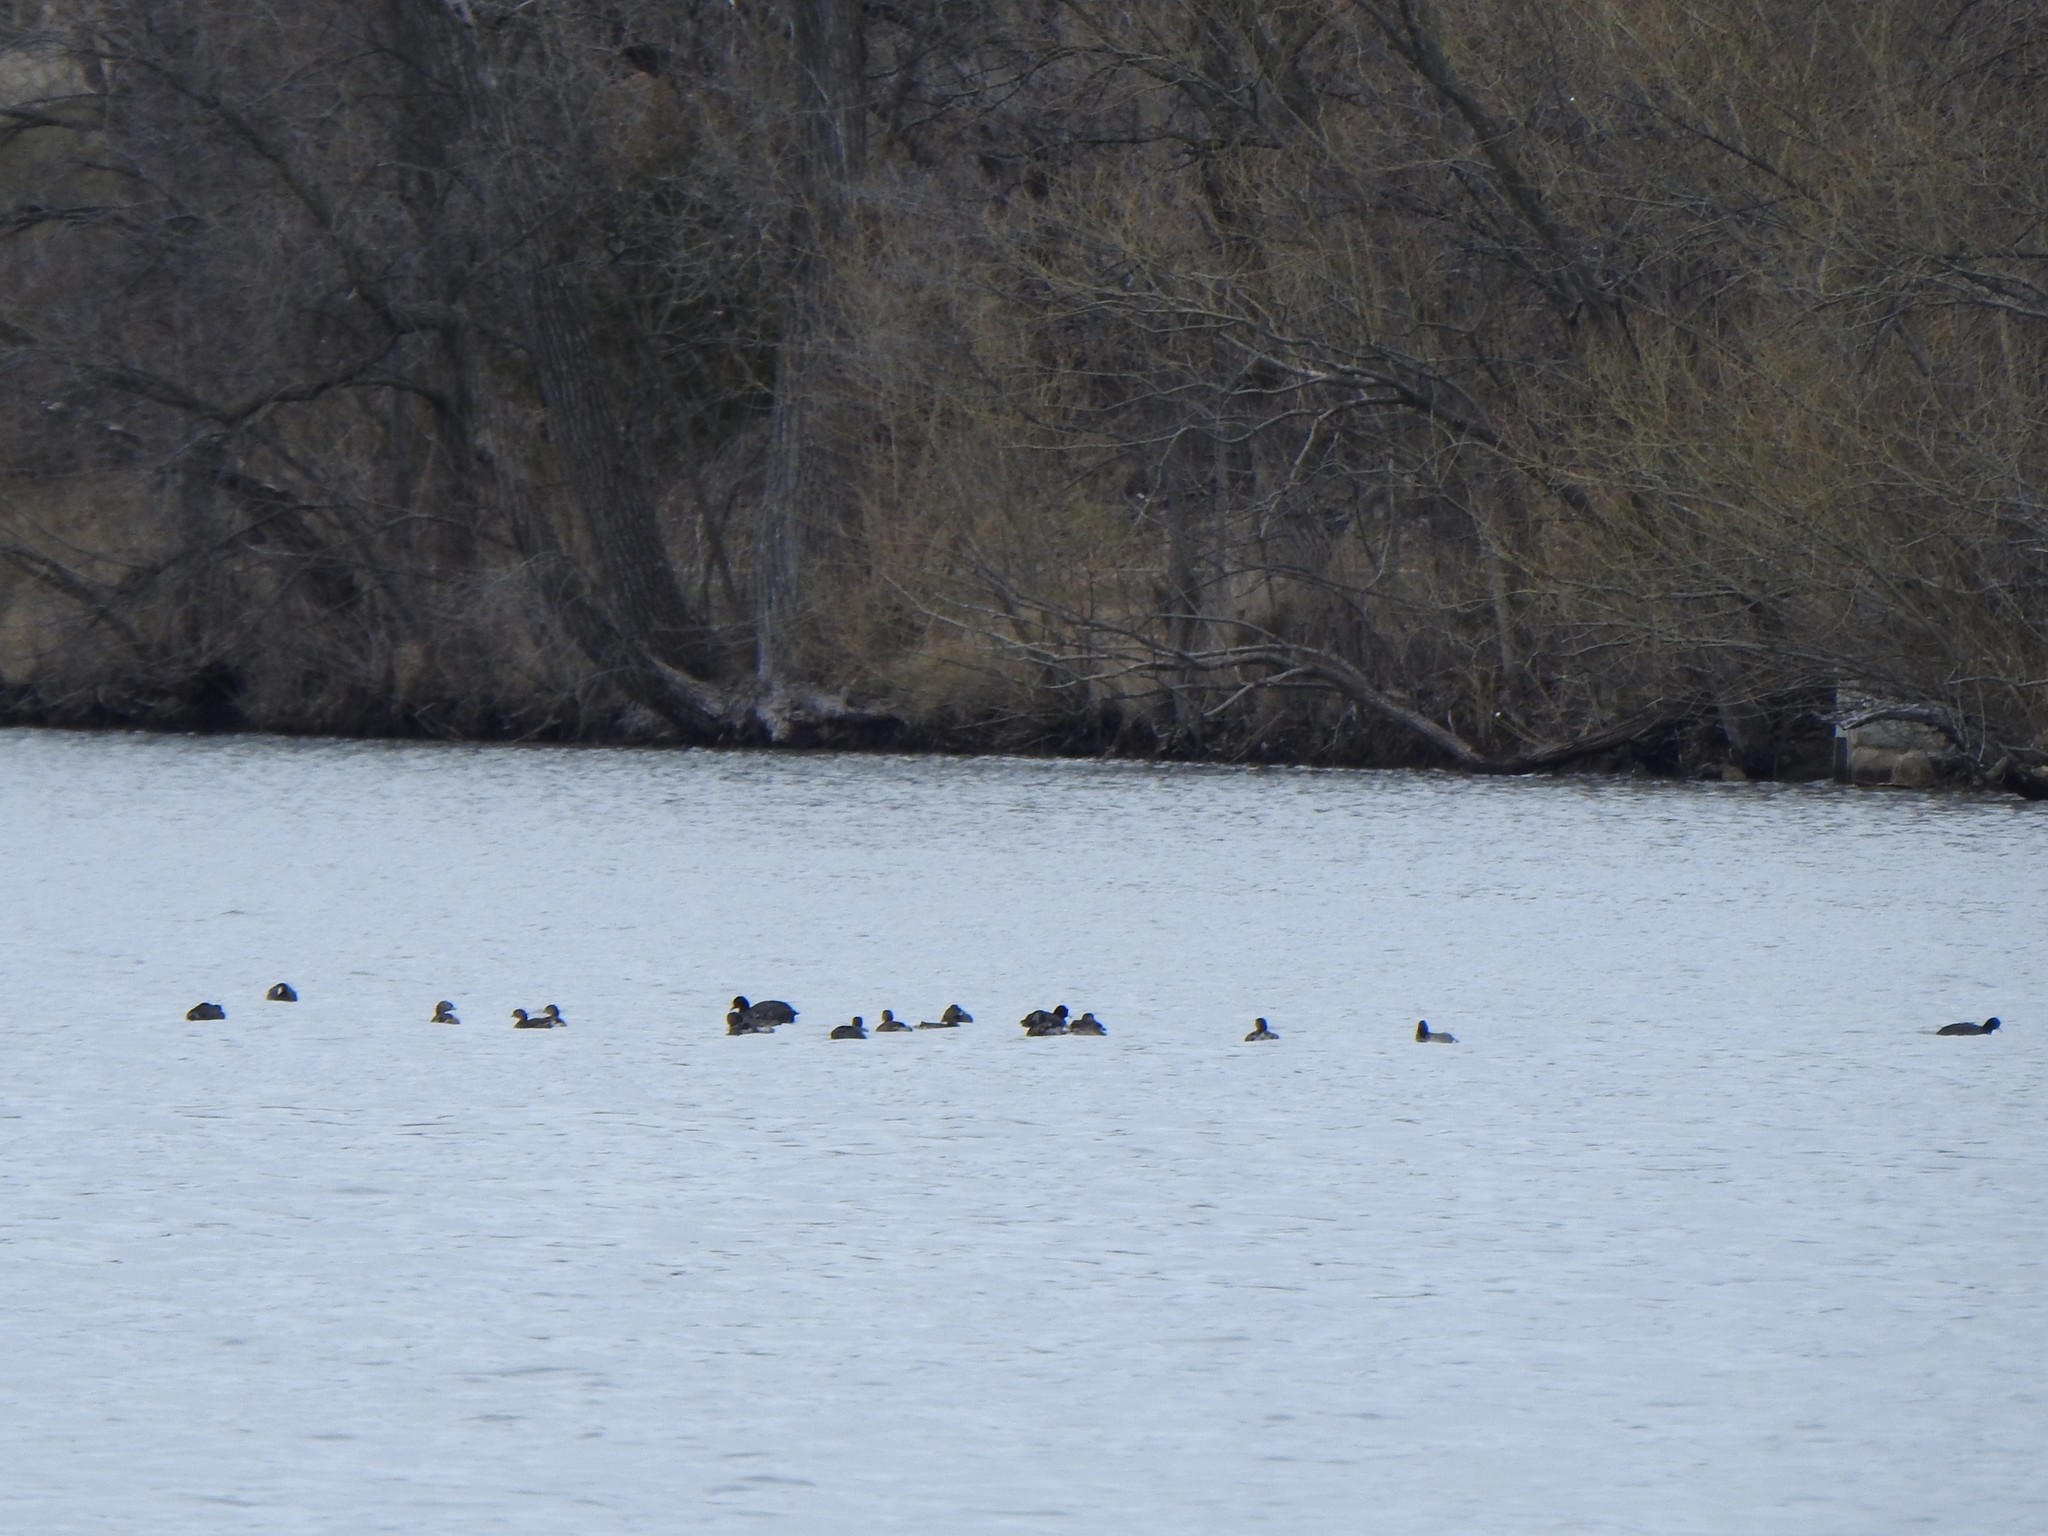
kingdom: Animalia
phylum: Chordata
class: Aves
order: Podicipediformes
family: Podicipedidae
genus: Podilymbus
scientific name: Podilymbus podiceps
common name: Pied-billed grebe
